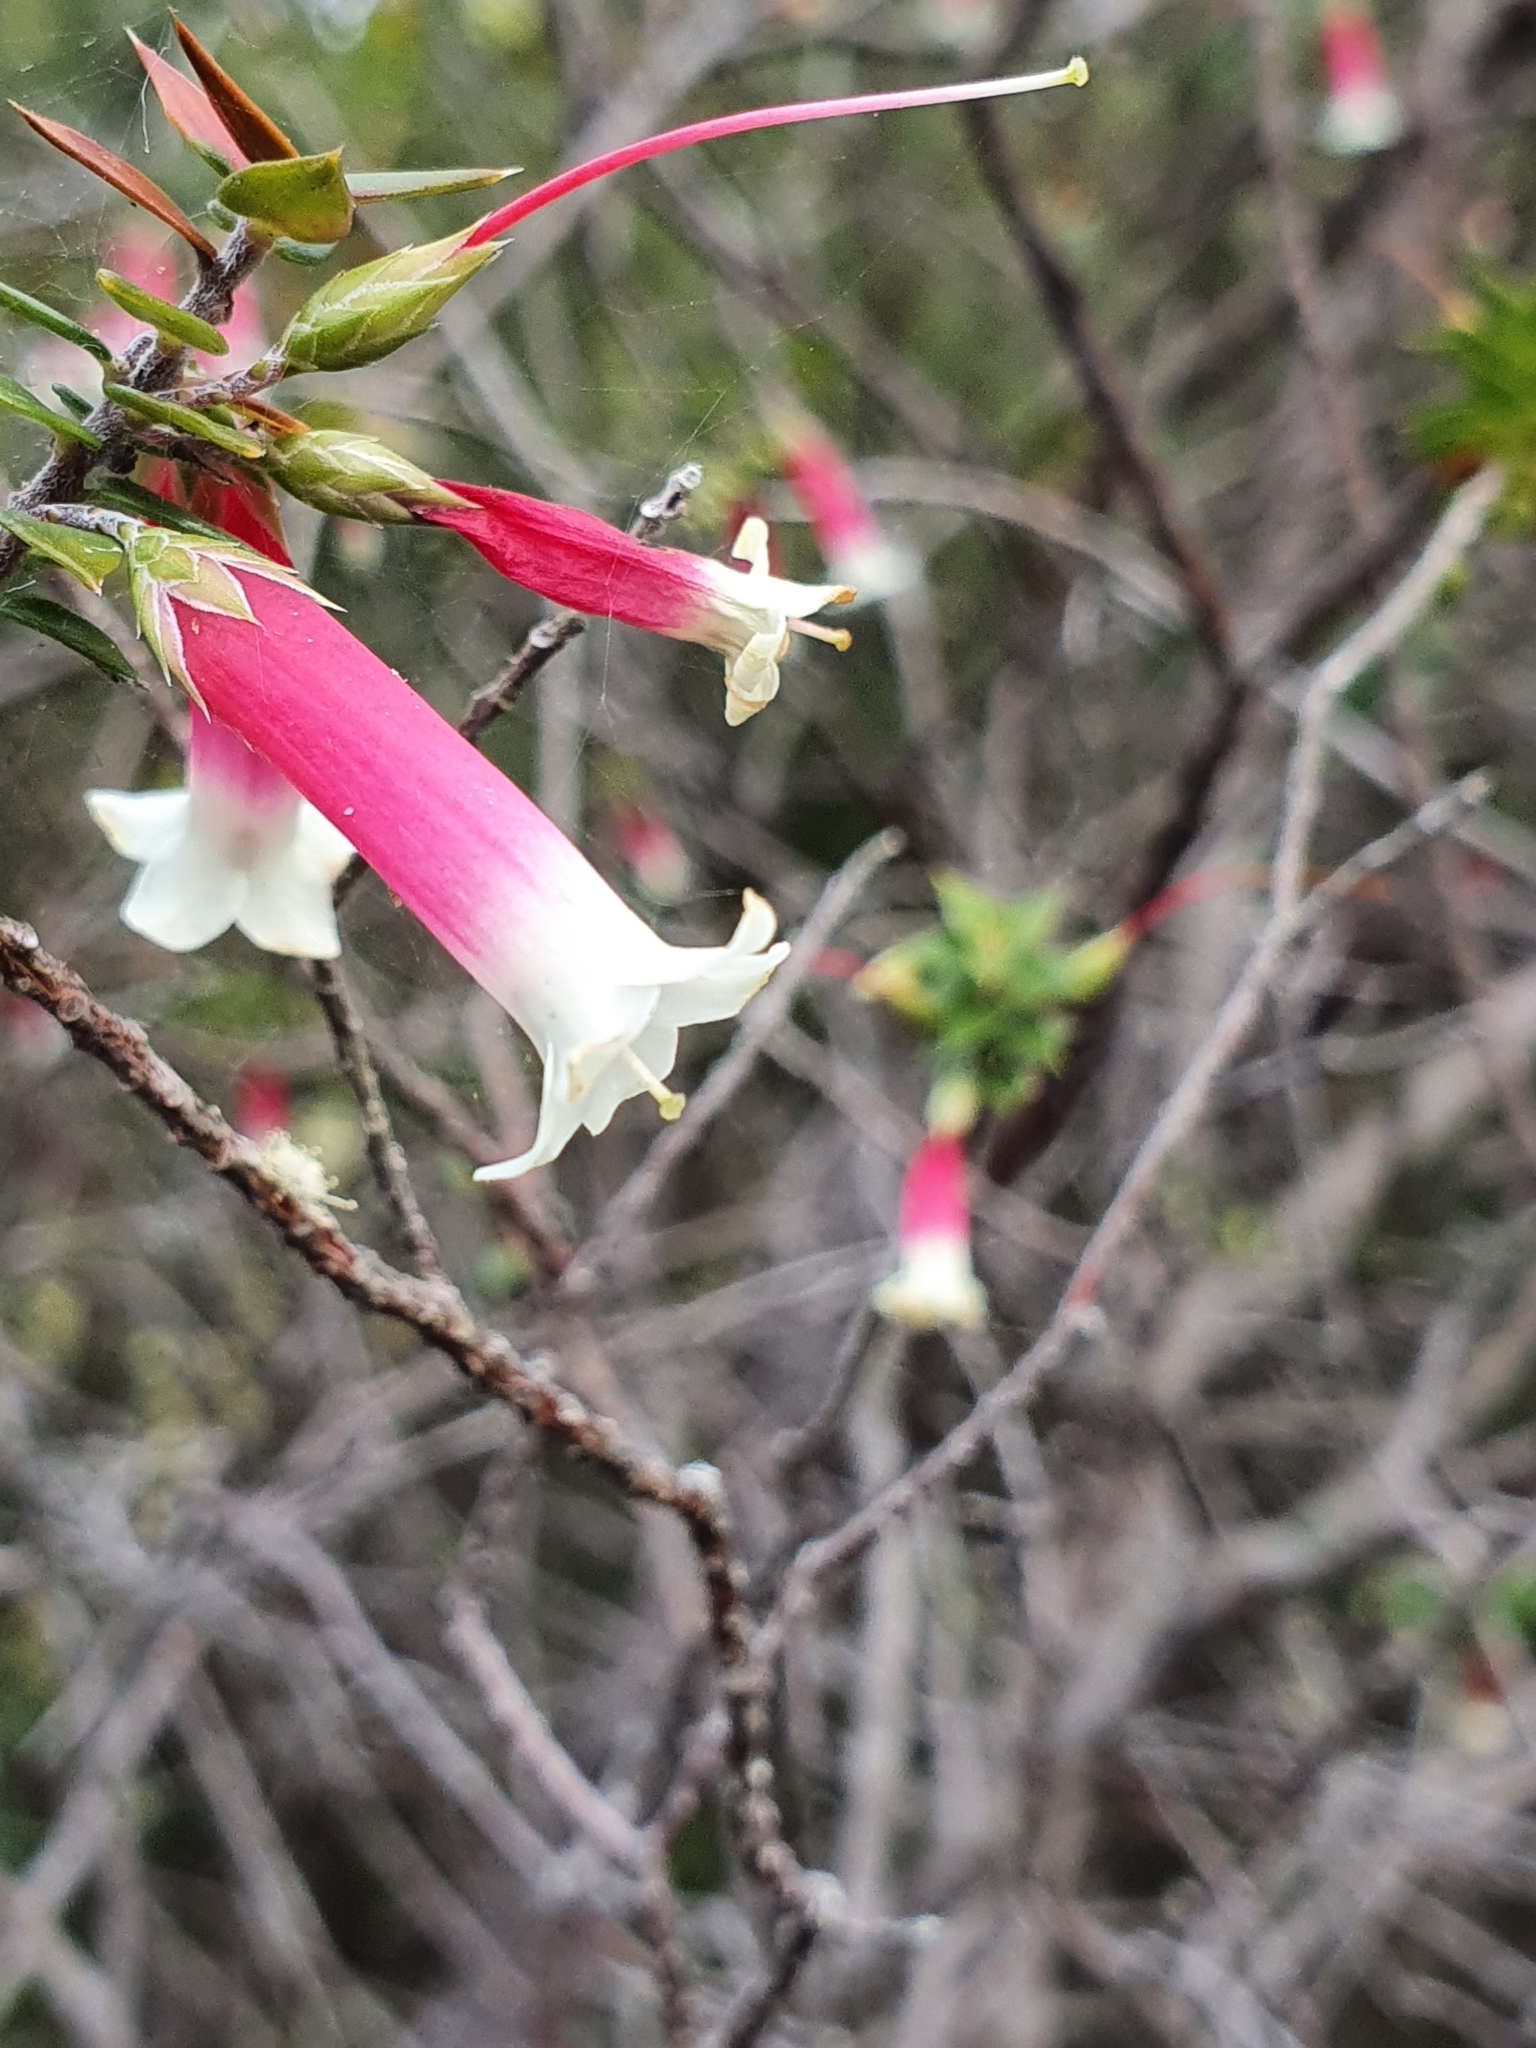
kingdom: Plantae
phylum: Tracheophyta
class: Magnoliopsida
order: Ericales
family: Ericaceae
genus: Epacris
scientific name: Epacris longiflora
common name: Fuchsia-heath
